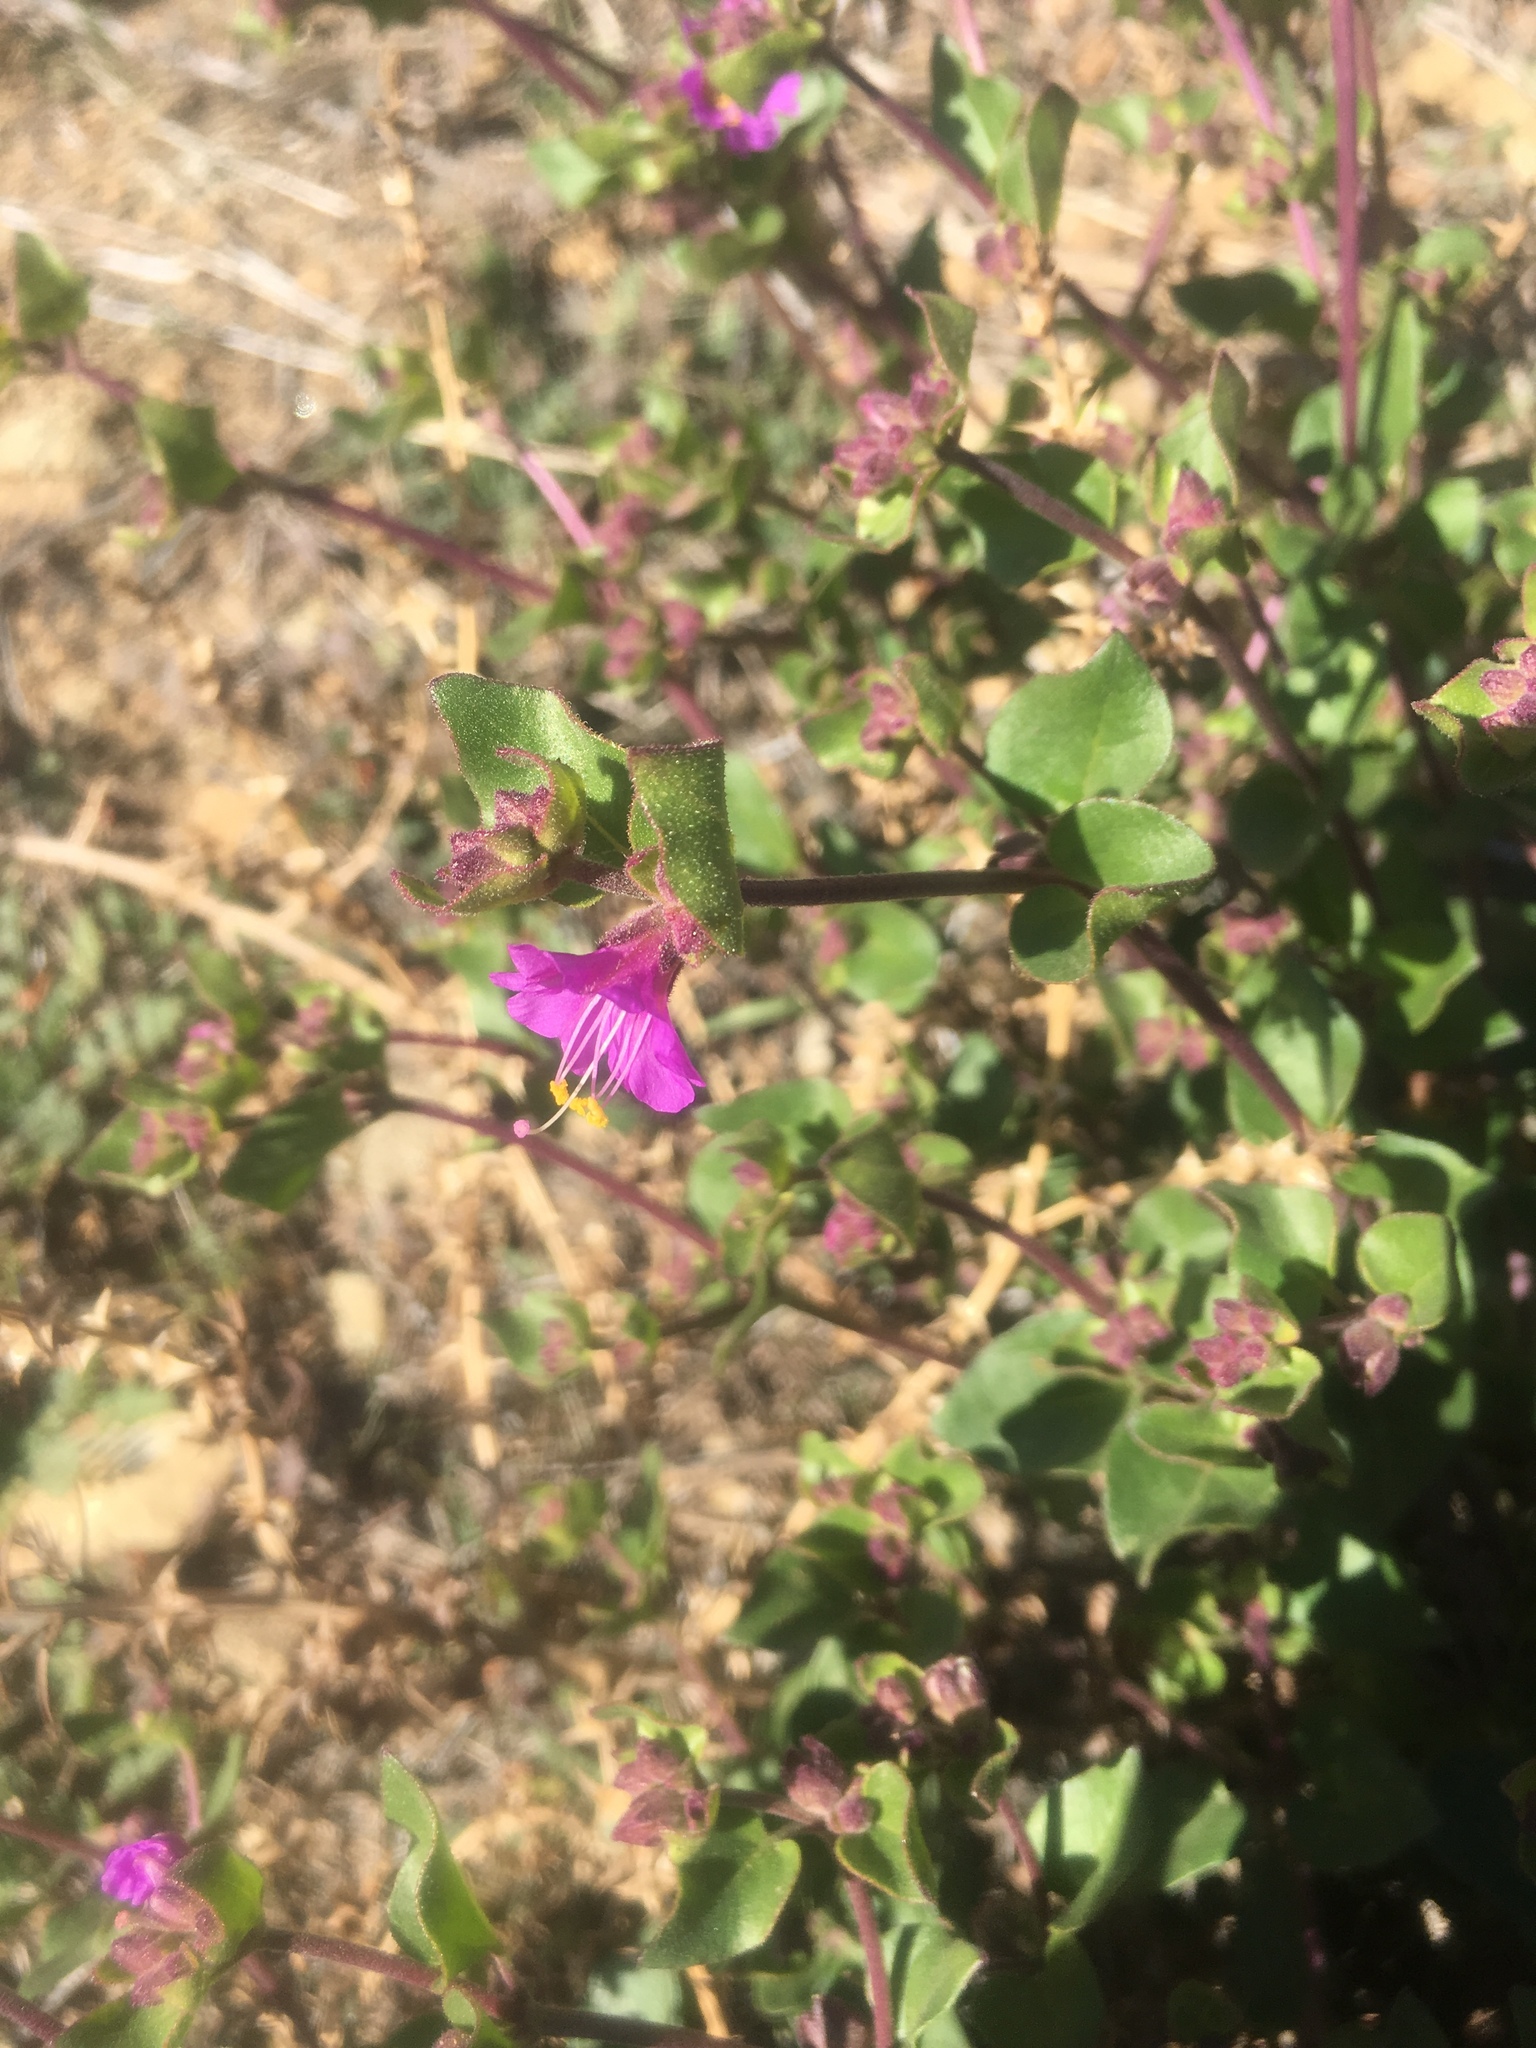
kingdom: Plantae
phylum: Tracheophyta
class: Magnoliopsida
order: Caryophyllales
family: Nyctaginaceae
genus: Mirabilis
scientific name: Mirabilis laevis
